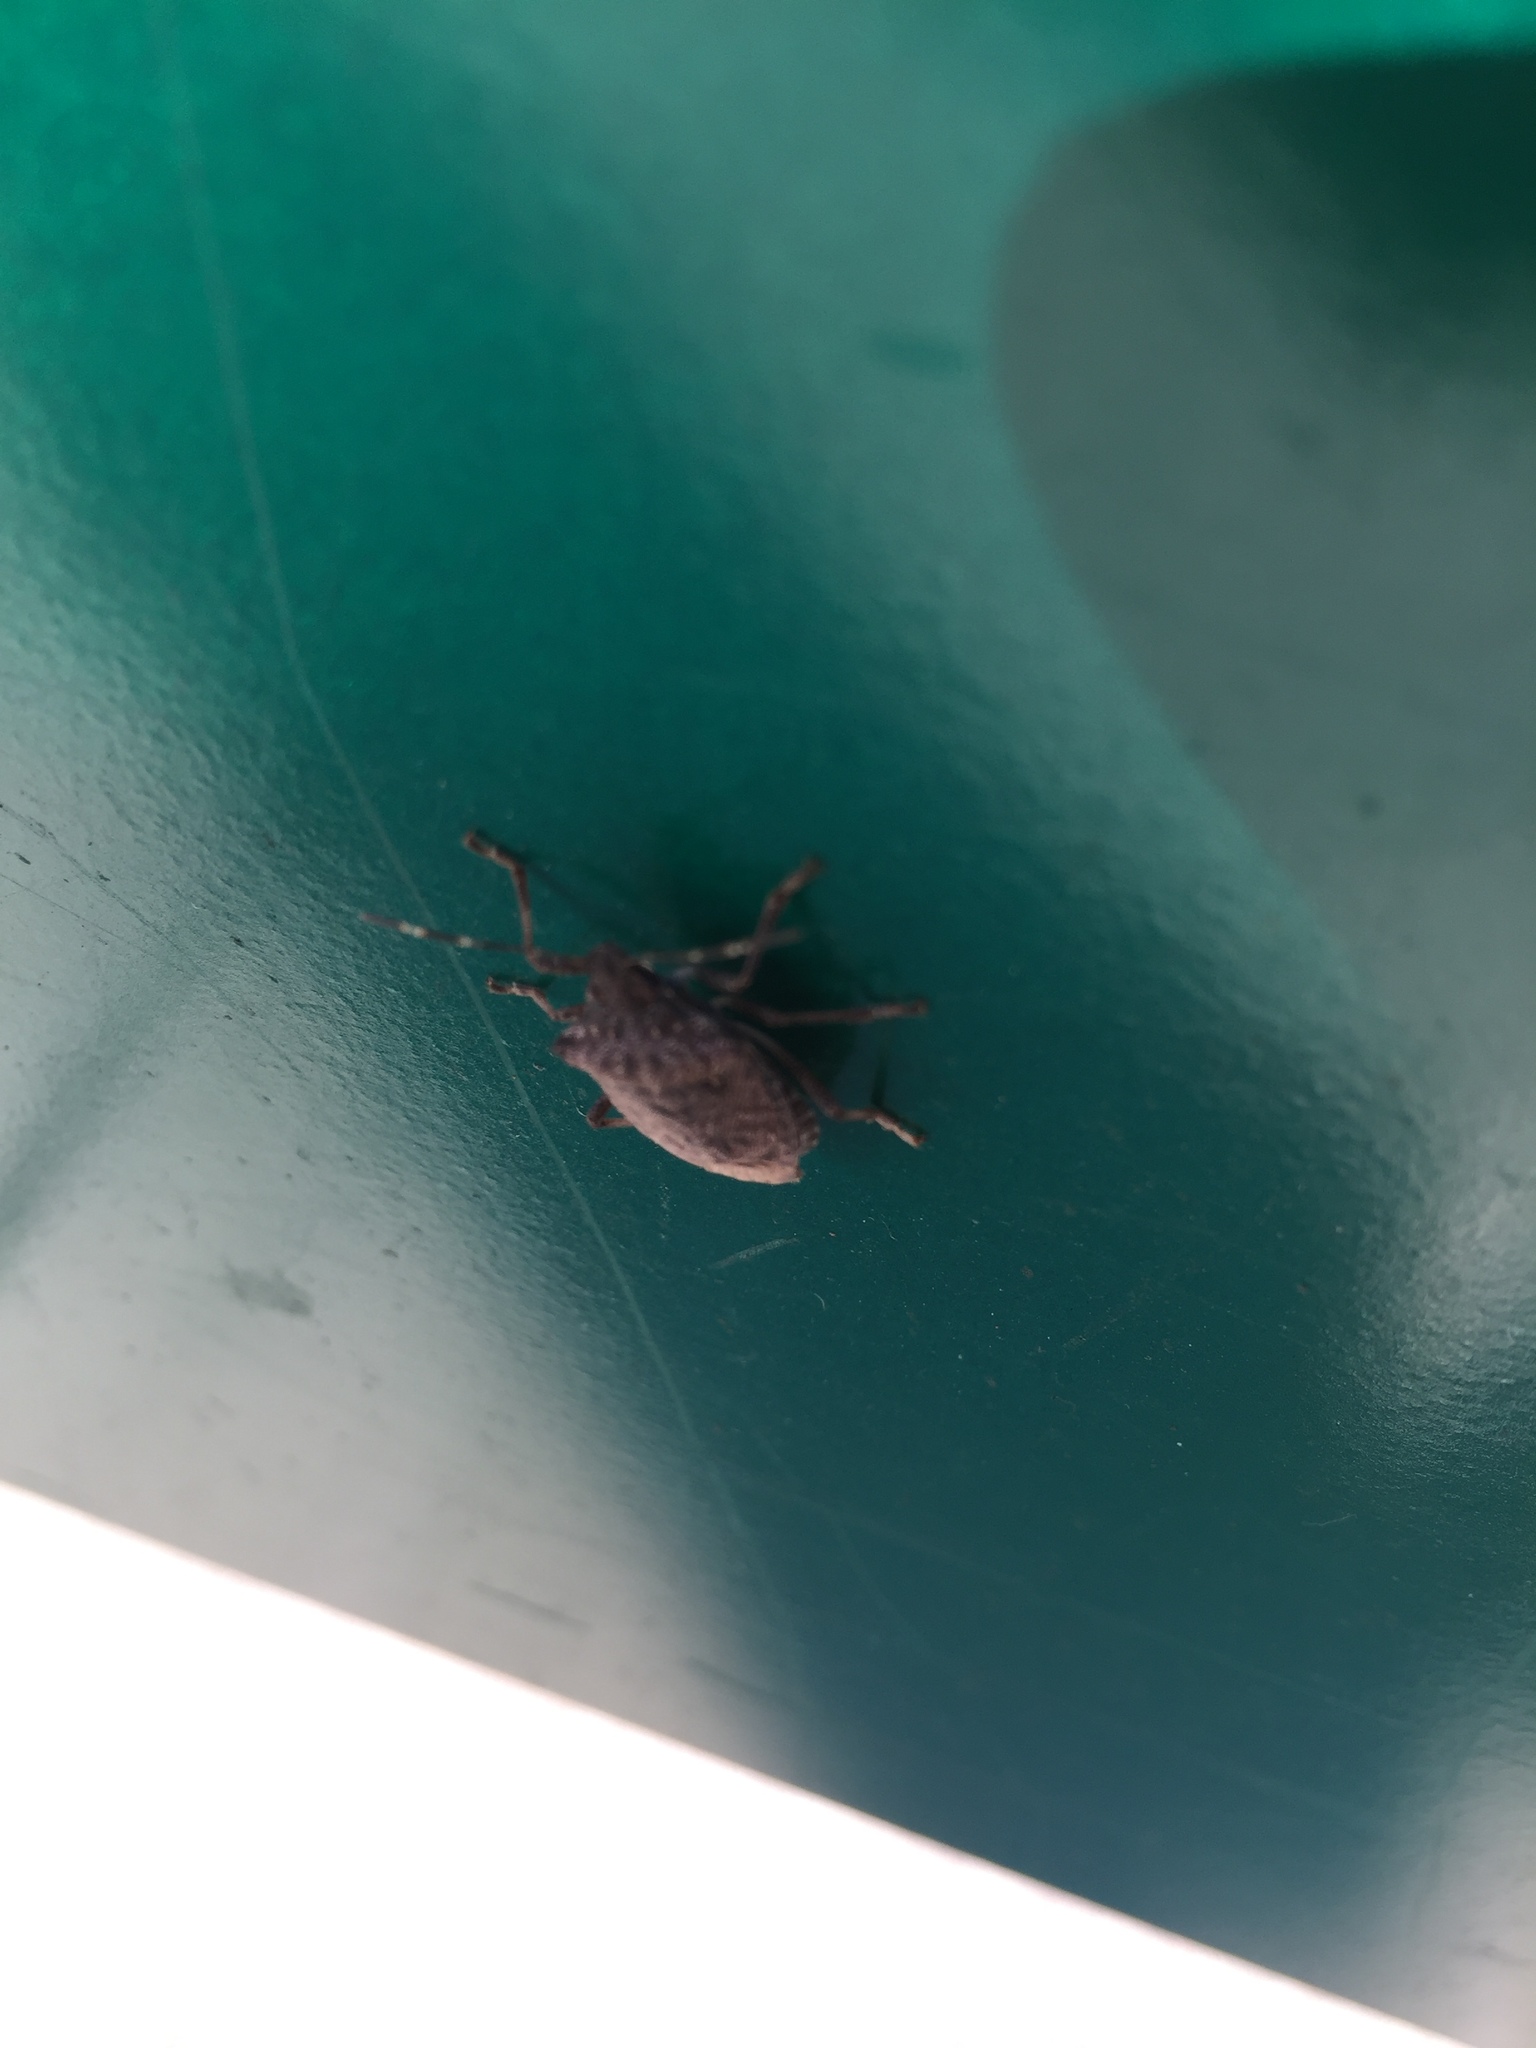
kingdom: Animalia
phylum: Arthropoda
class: Insecta
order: Hemiptera
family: Pentatomidae
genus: Halyomorpha
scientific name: Halyomorpha halys
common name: Brown marmorated stink bug
